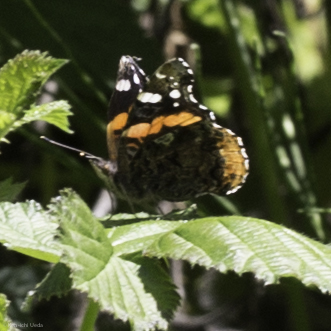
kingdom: Animalia
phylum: Arthropoda
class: Insecta
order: Lepidoptera
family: Nymphalidae
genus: Vanessa
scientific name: Vanessa atalanta
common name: Red admiral
